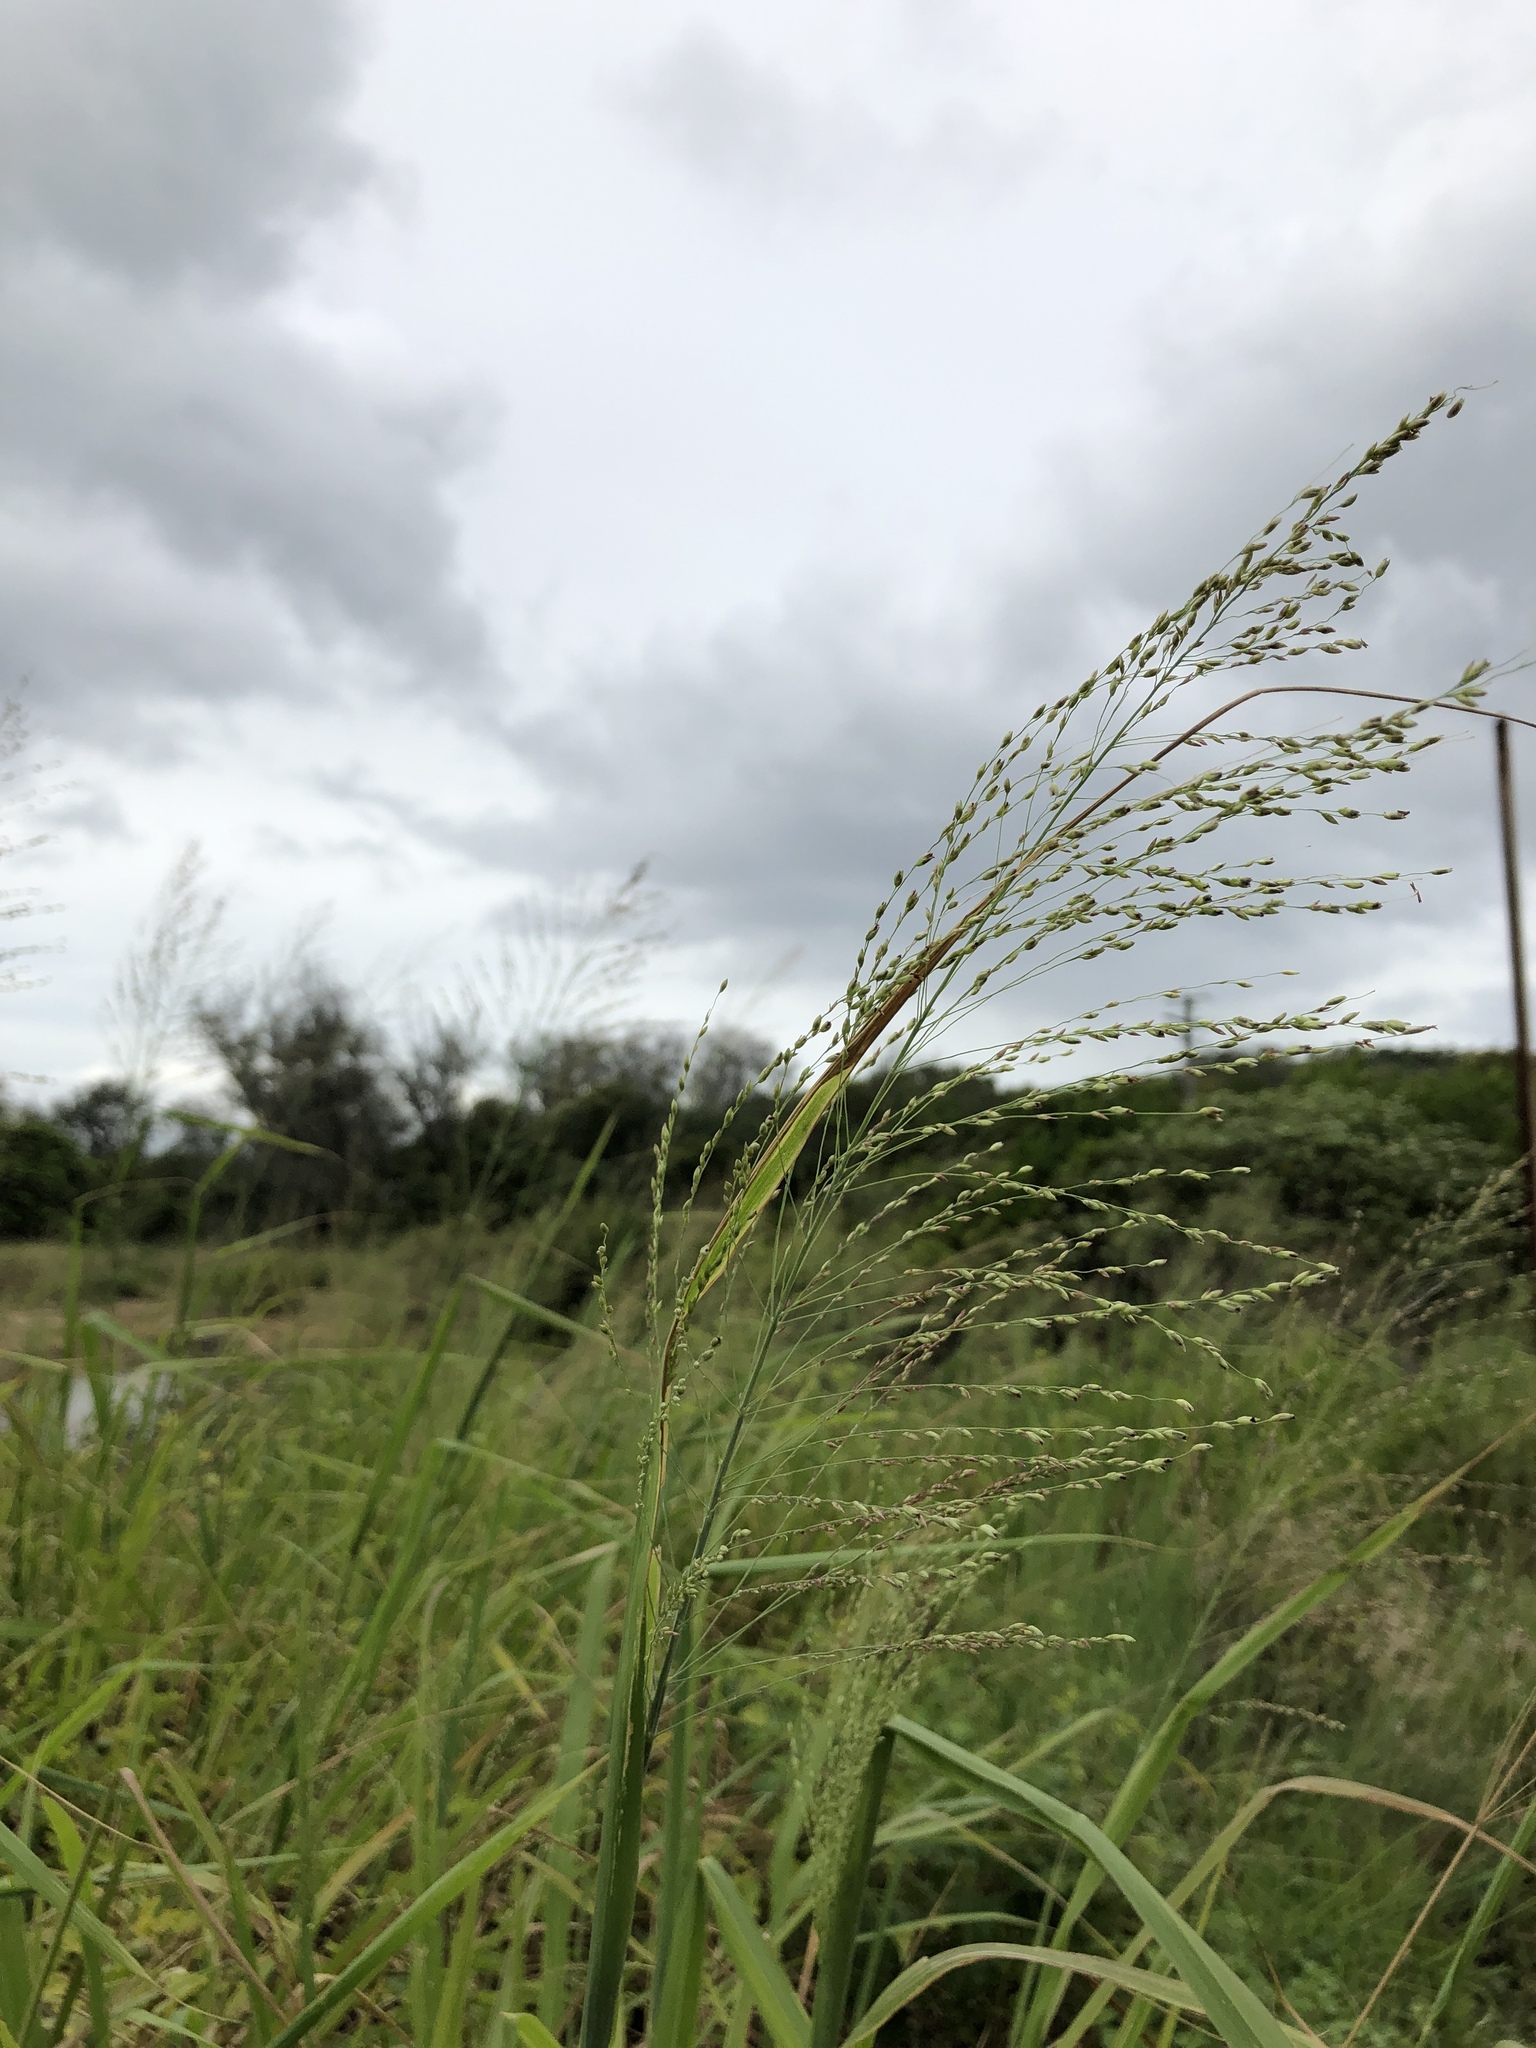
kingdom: Plantae
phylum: Tracheophyta
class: Liliopsida
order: Poales
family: Poaceae
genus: Megathyrsus
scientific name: Megathyrsus maximus
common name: Guineagrass
